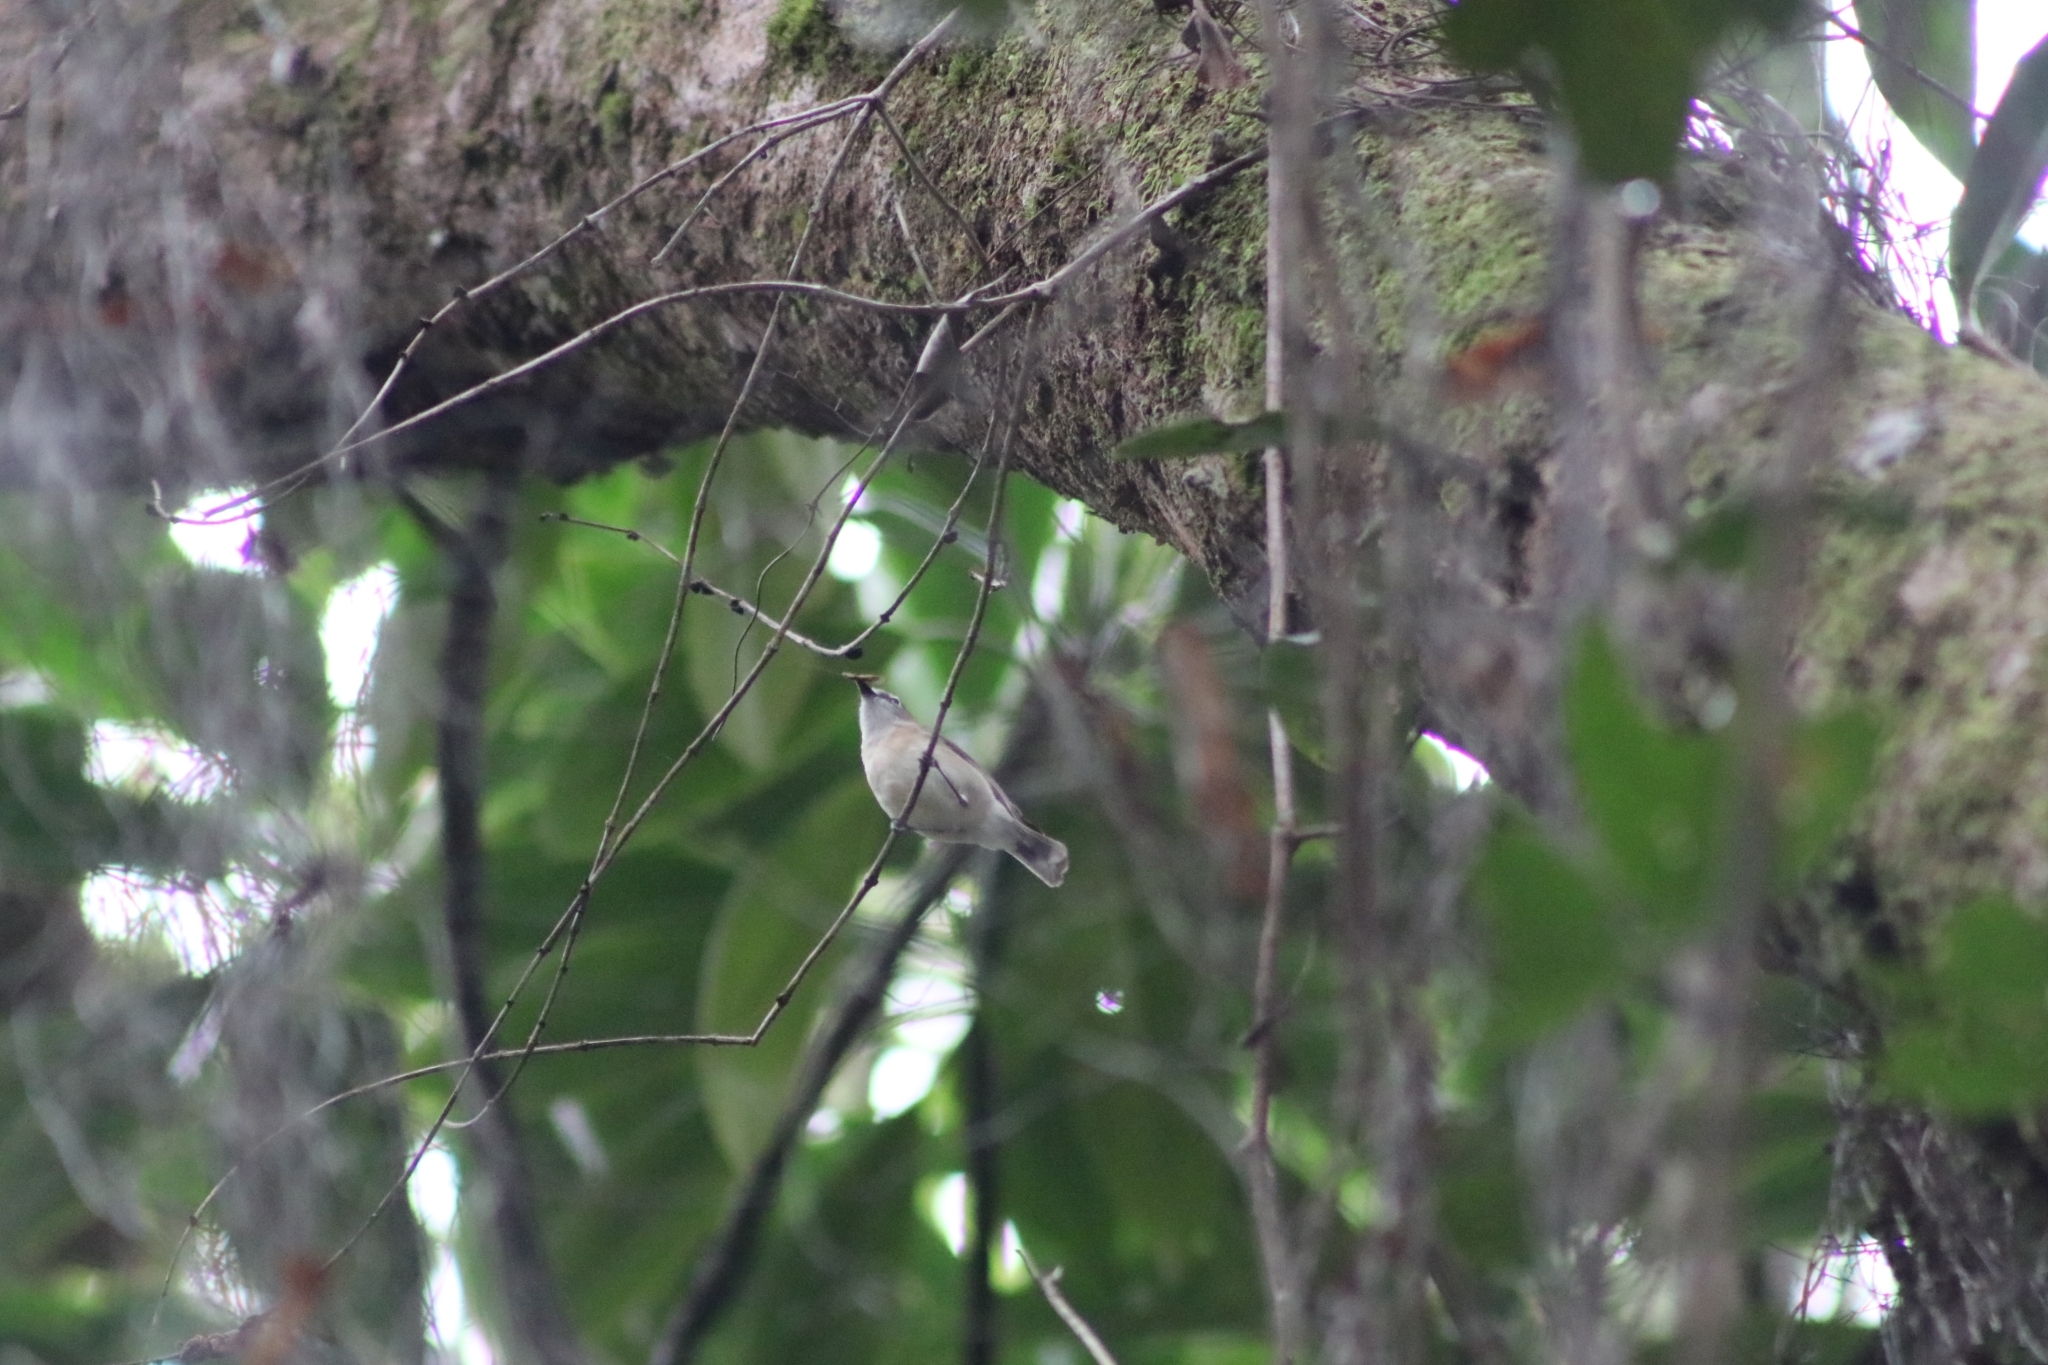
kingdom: Animalia
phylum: Chordata
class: Aves
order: Passeriformes
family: Acanthizidae
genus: Gerygone
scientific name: Gerygone magnirostris
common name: Large-billed gerygone
